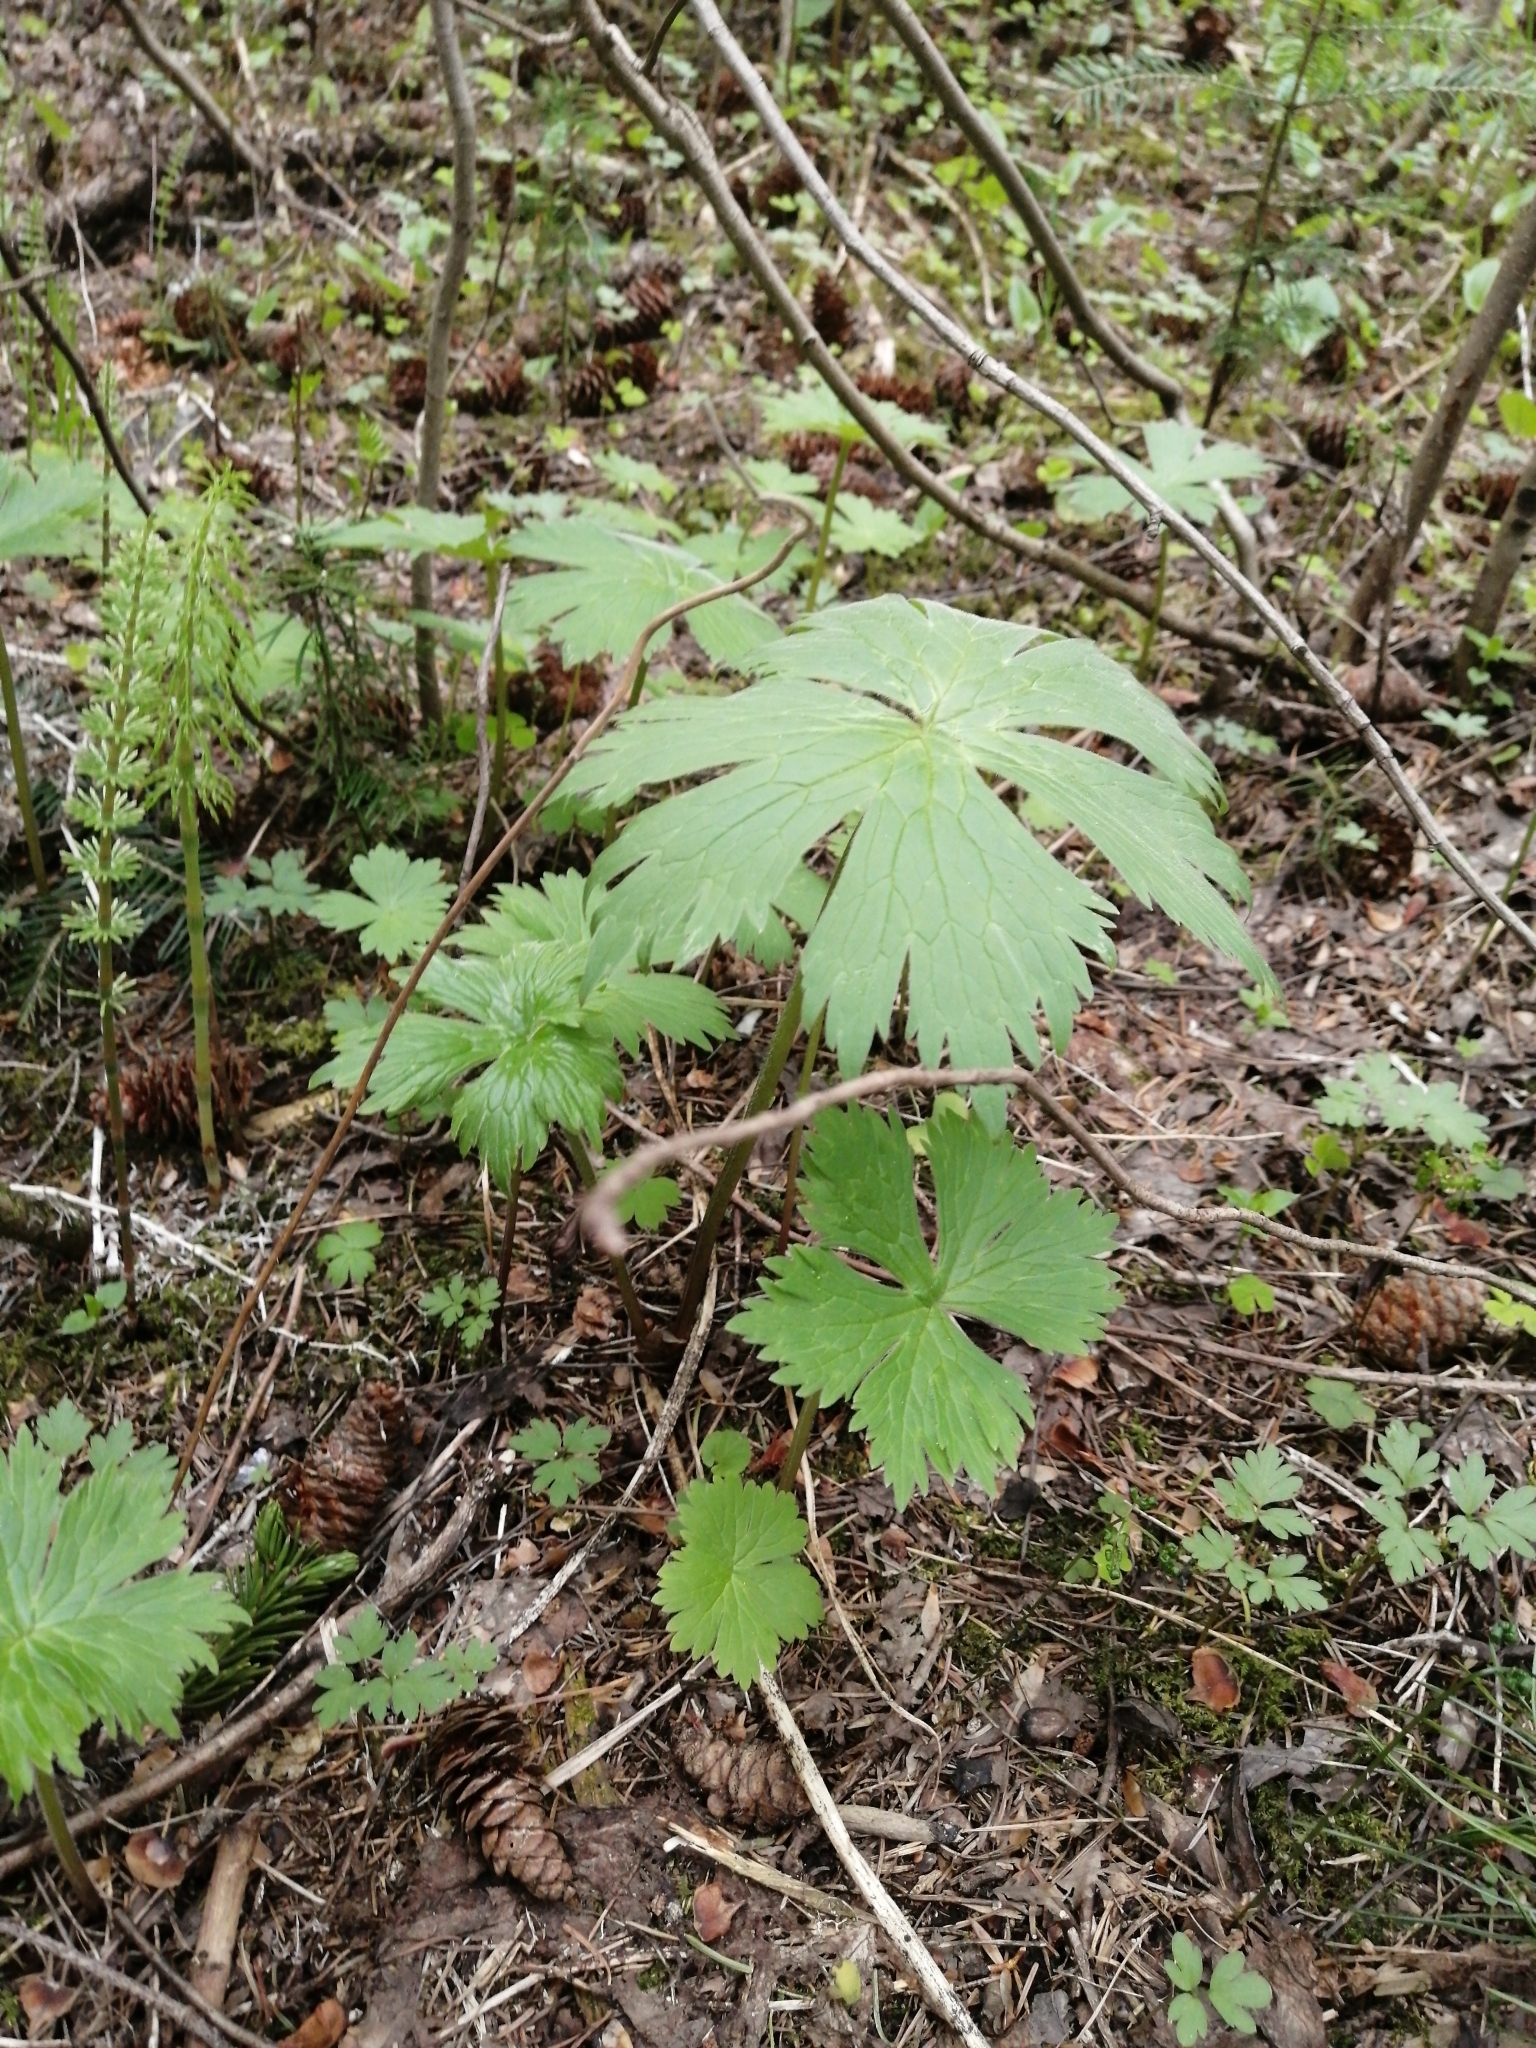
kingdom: Plantae
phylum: Tracheophyta
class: Magnoliopsida
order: Ranunculales
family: Ranunculaceae
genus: Aconitum
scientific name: Aconitum septentrionale
